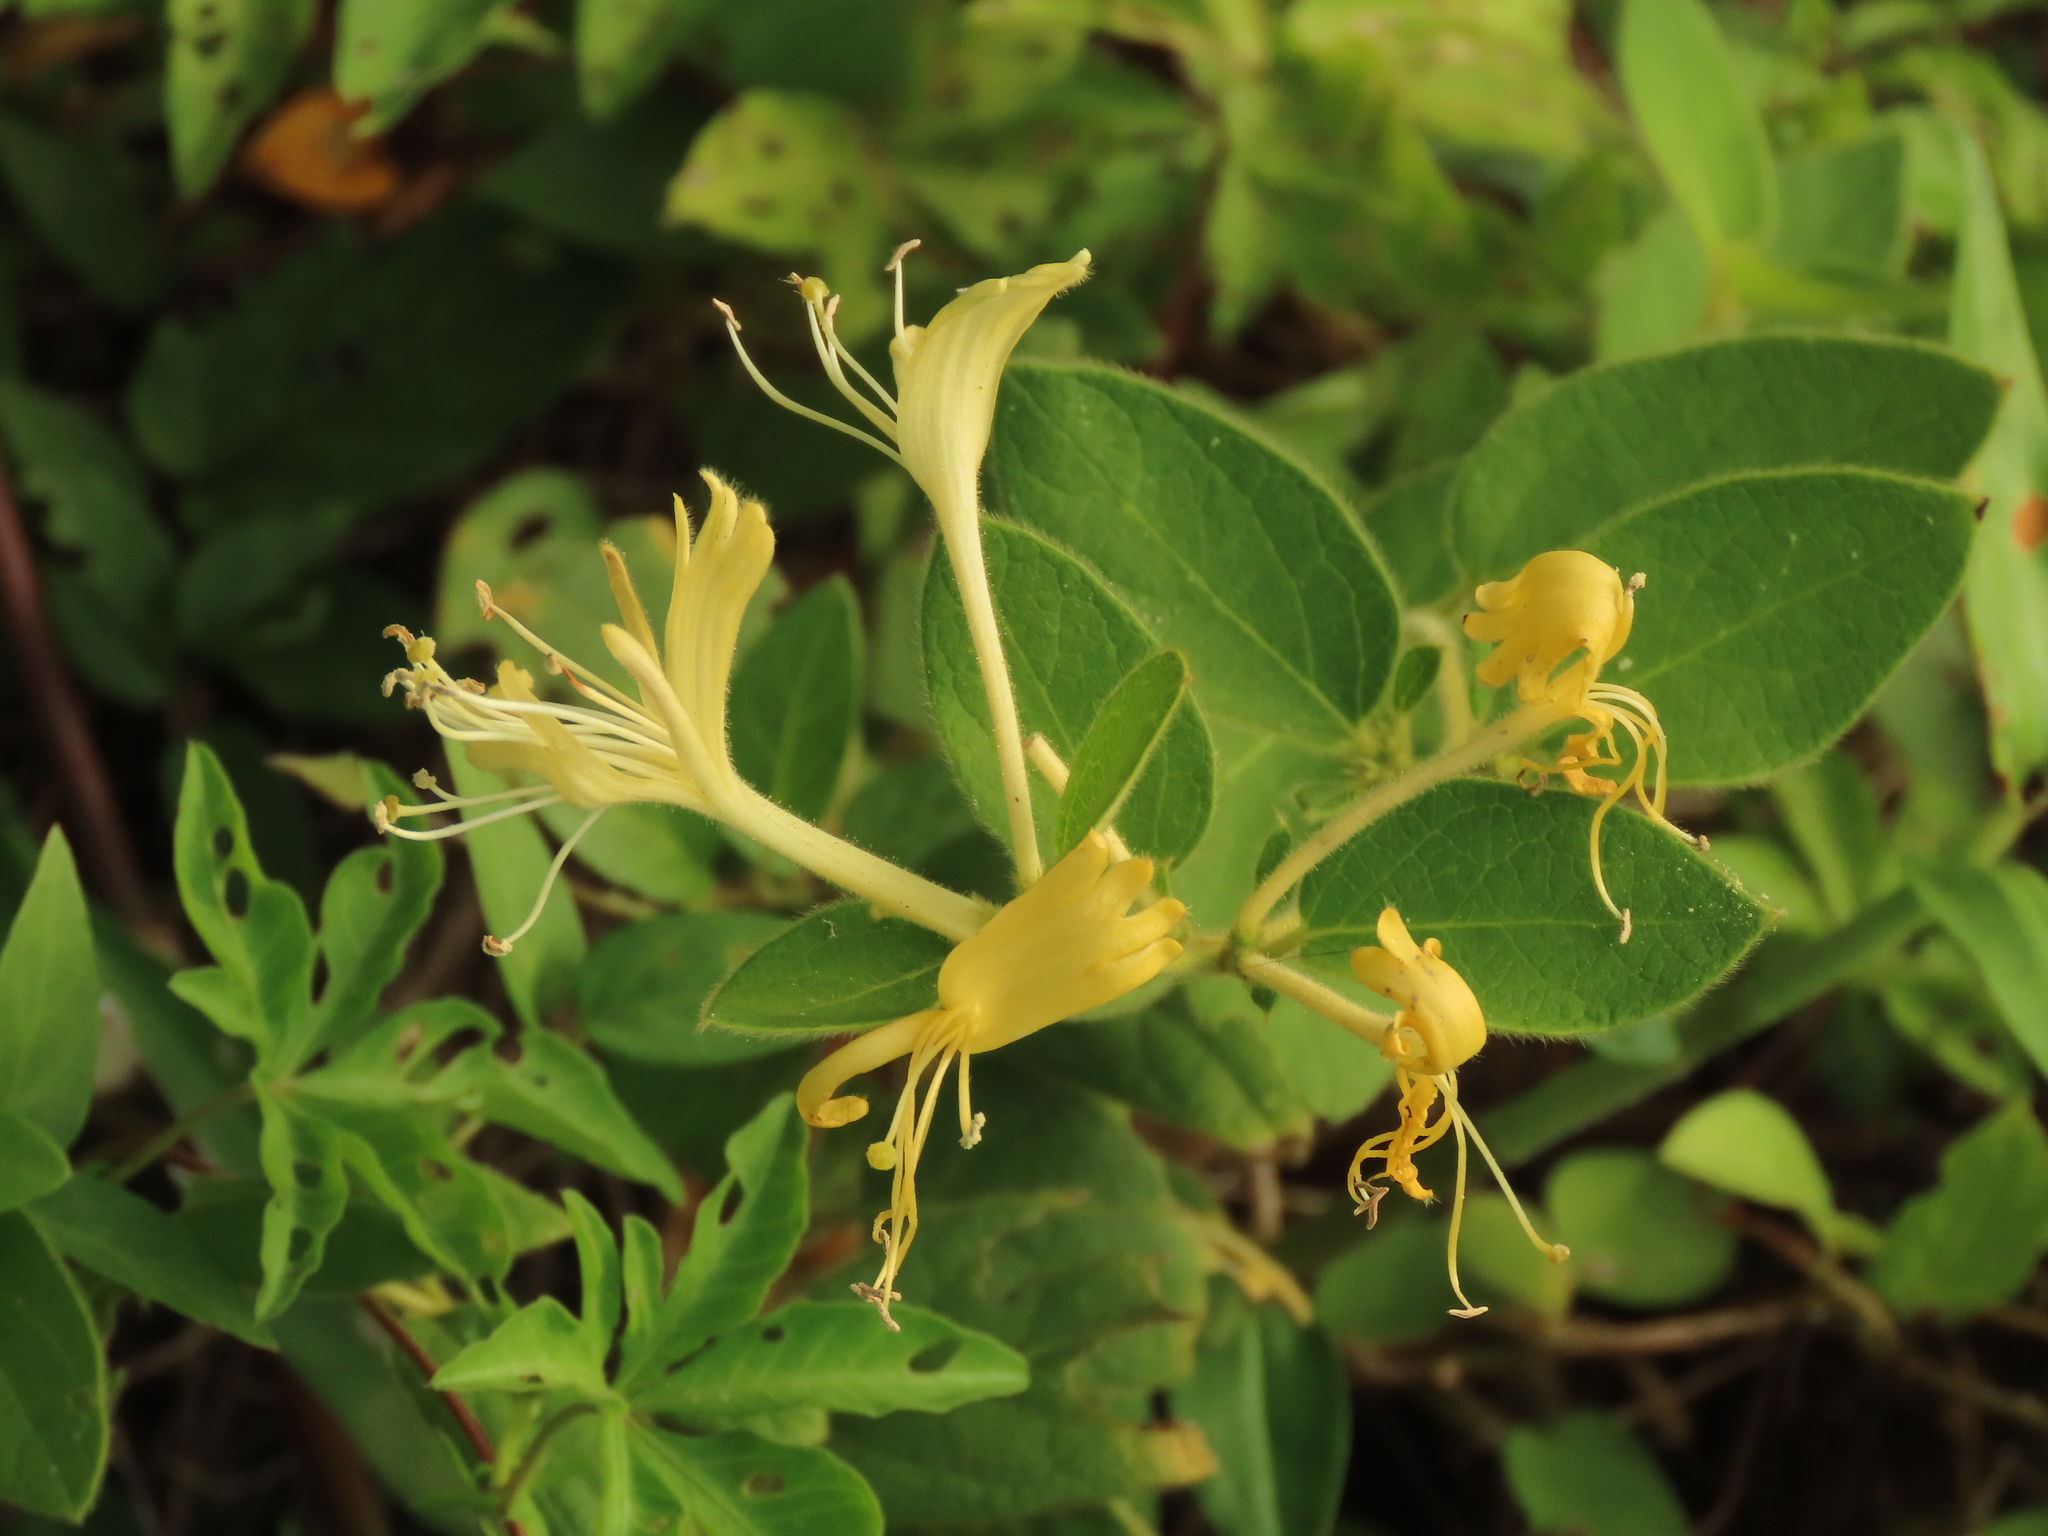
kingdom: Plantae
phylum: Tracheophyta
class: Magnoliopsida
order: Dipsacales
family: Caprifoliaceae
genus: Lonicera
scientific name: Lonicera japonica
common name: Japanese honeysuckle
